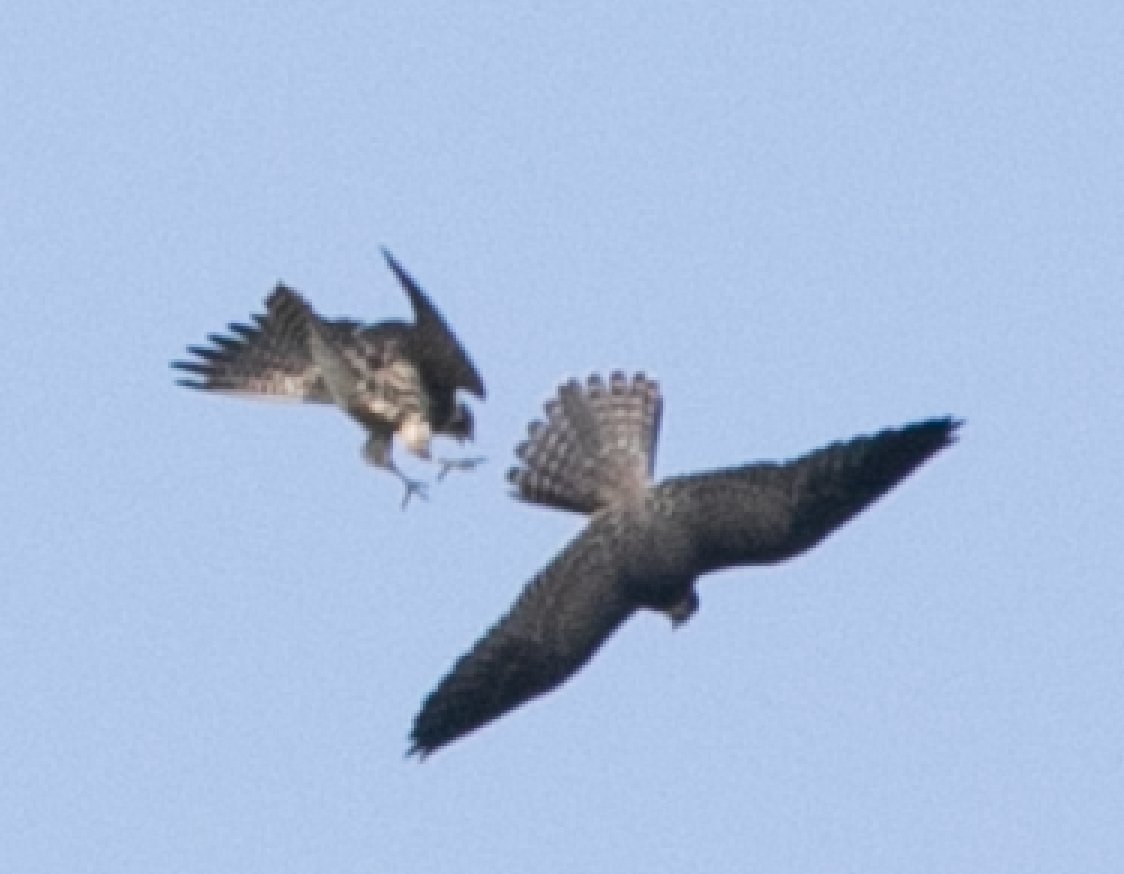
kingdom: Animalia
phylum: Chordata
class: Aves
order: Falconiformes
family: Falconidae
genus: Falco
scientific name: Falco subbuteo
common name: Eurasian hobby
